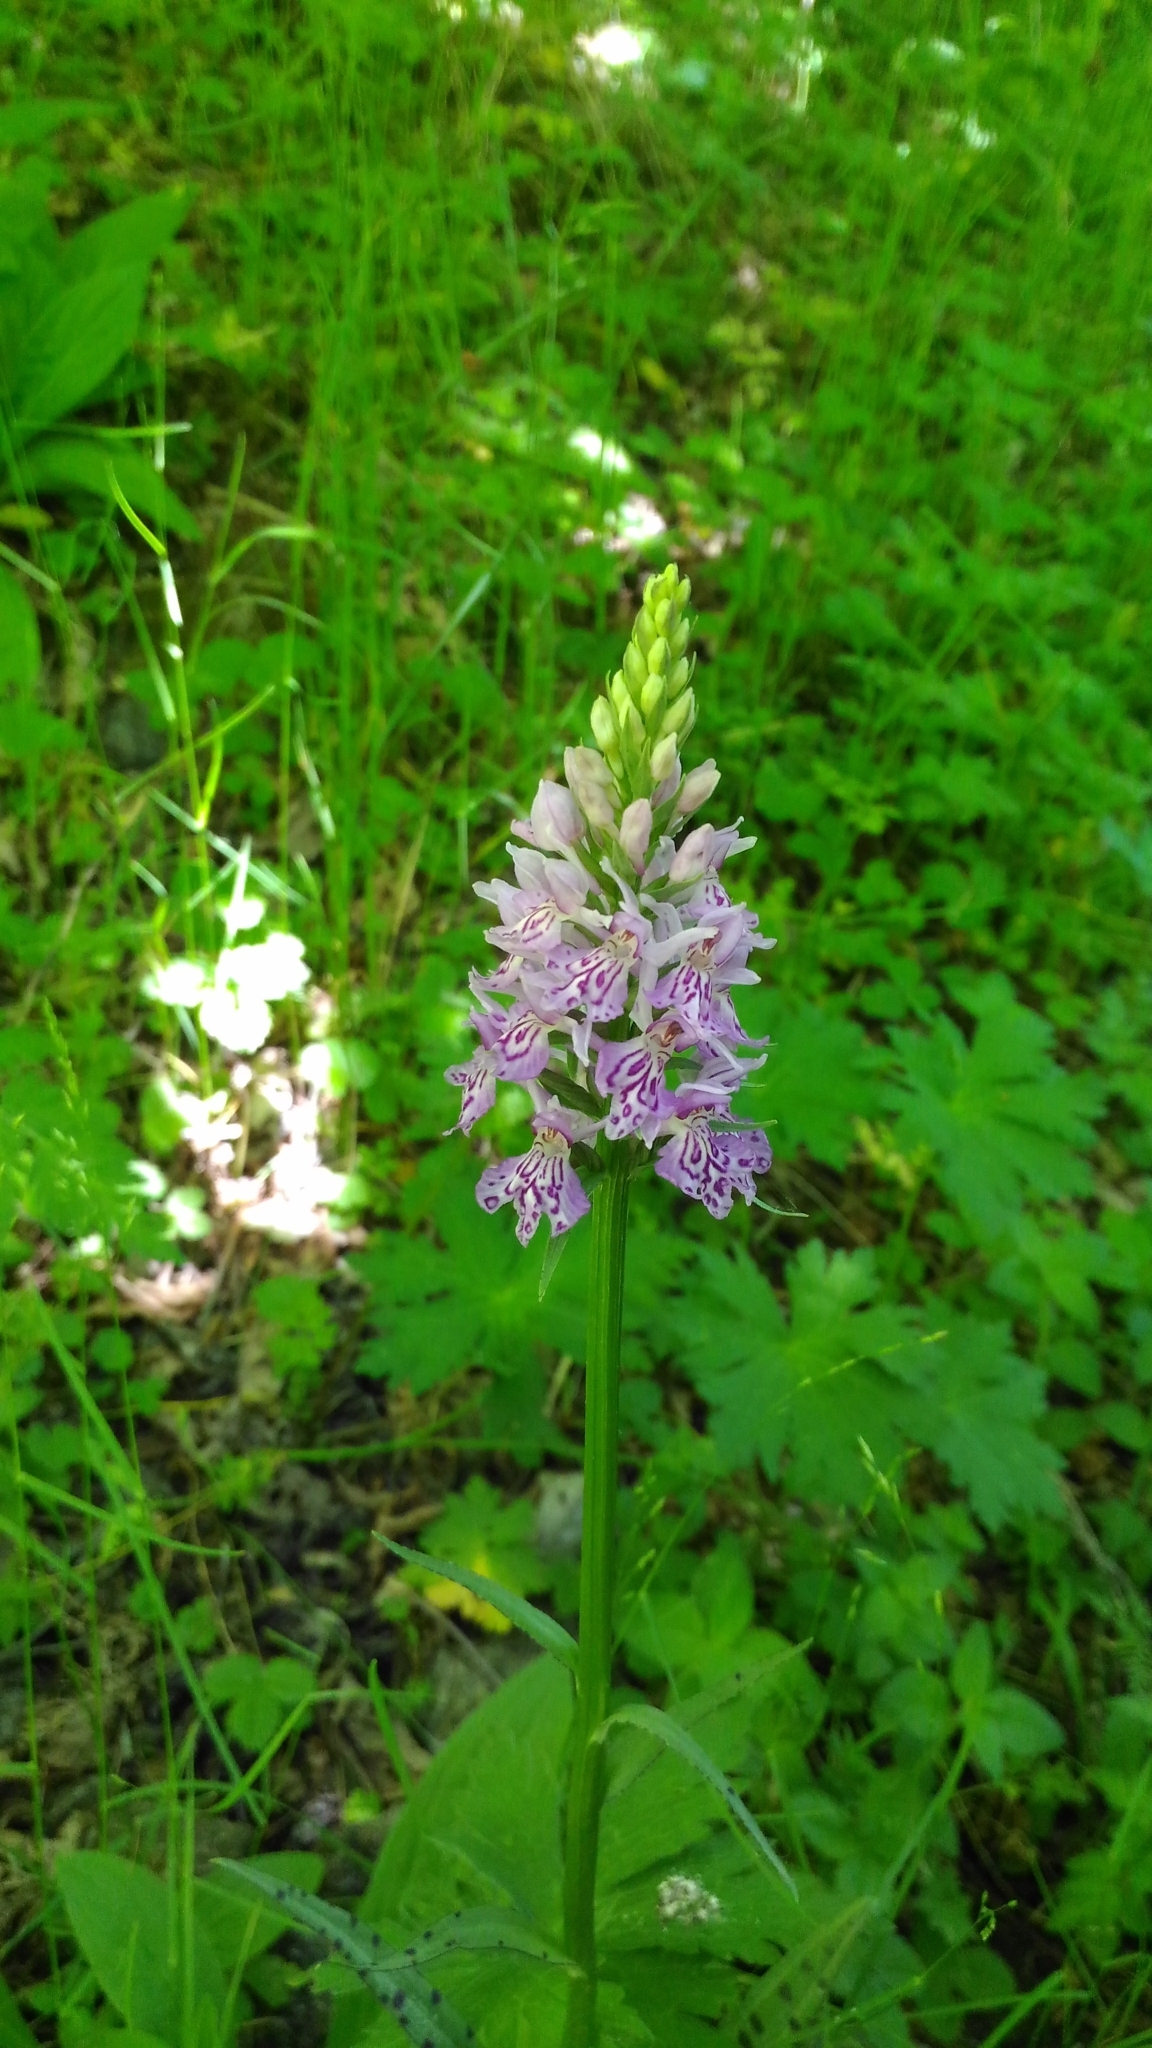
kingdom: Plantae
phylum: Tracheophyta
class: Liliopsida
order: Asparagales
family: Orchidaceae
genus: Dactylorhiza
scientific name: Dactylorhiza maculata
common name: Heath spotted-orchid
